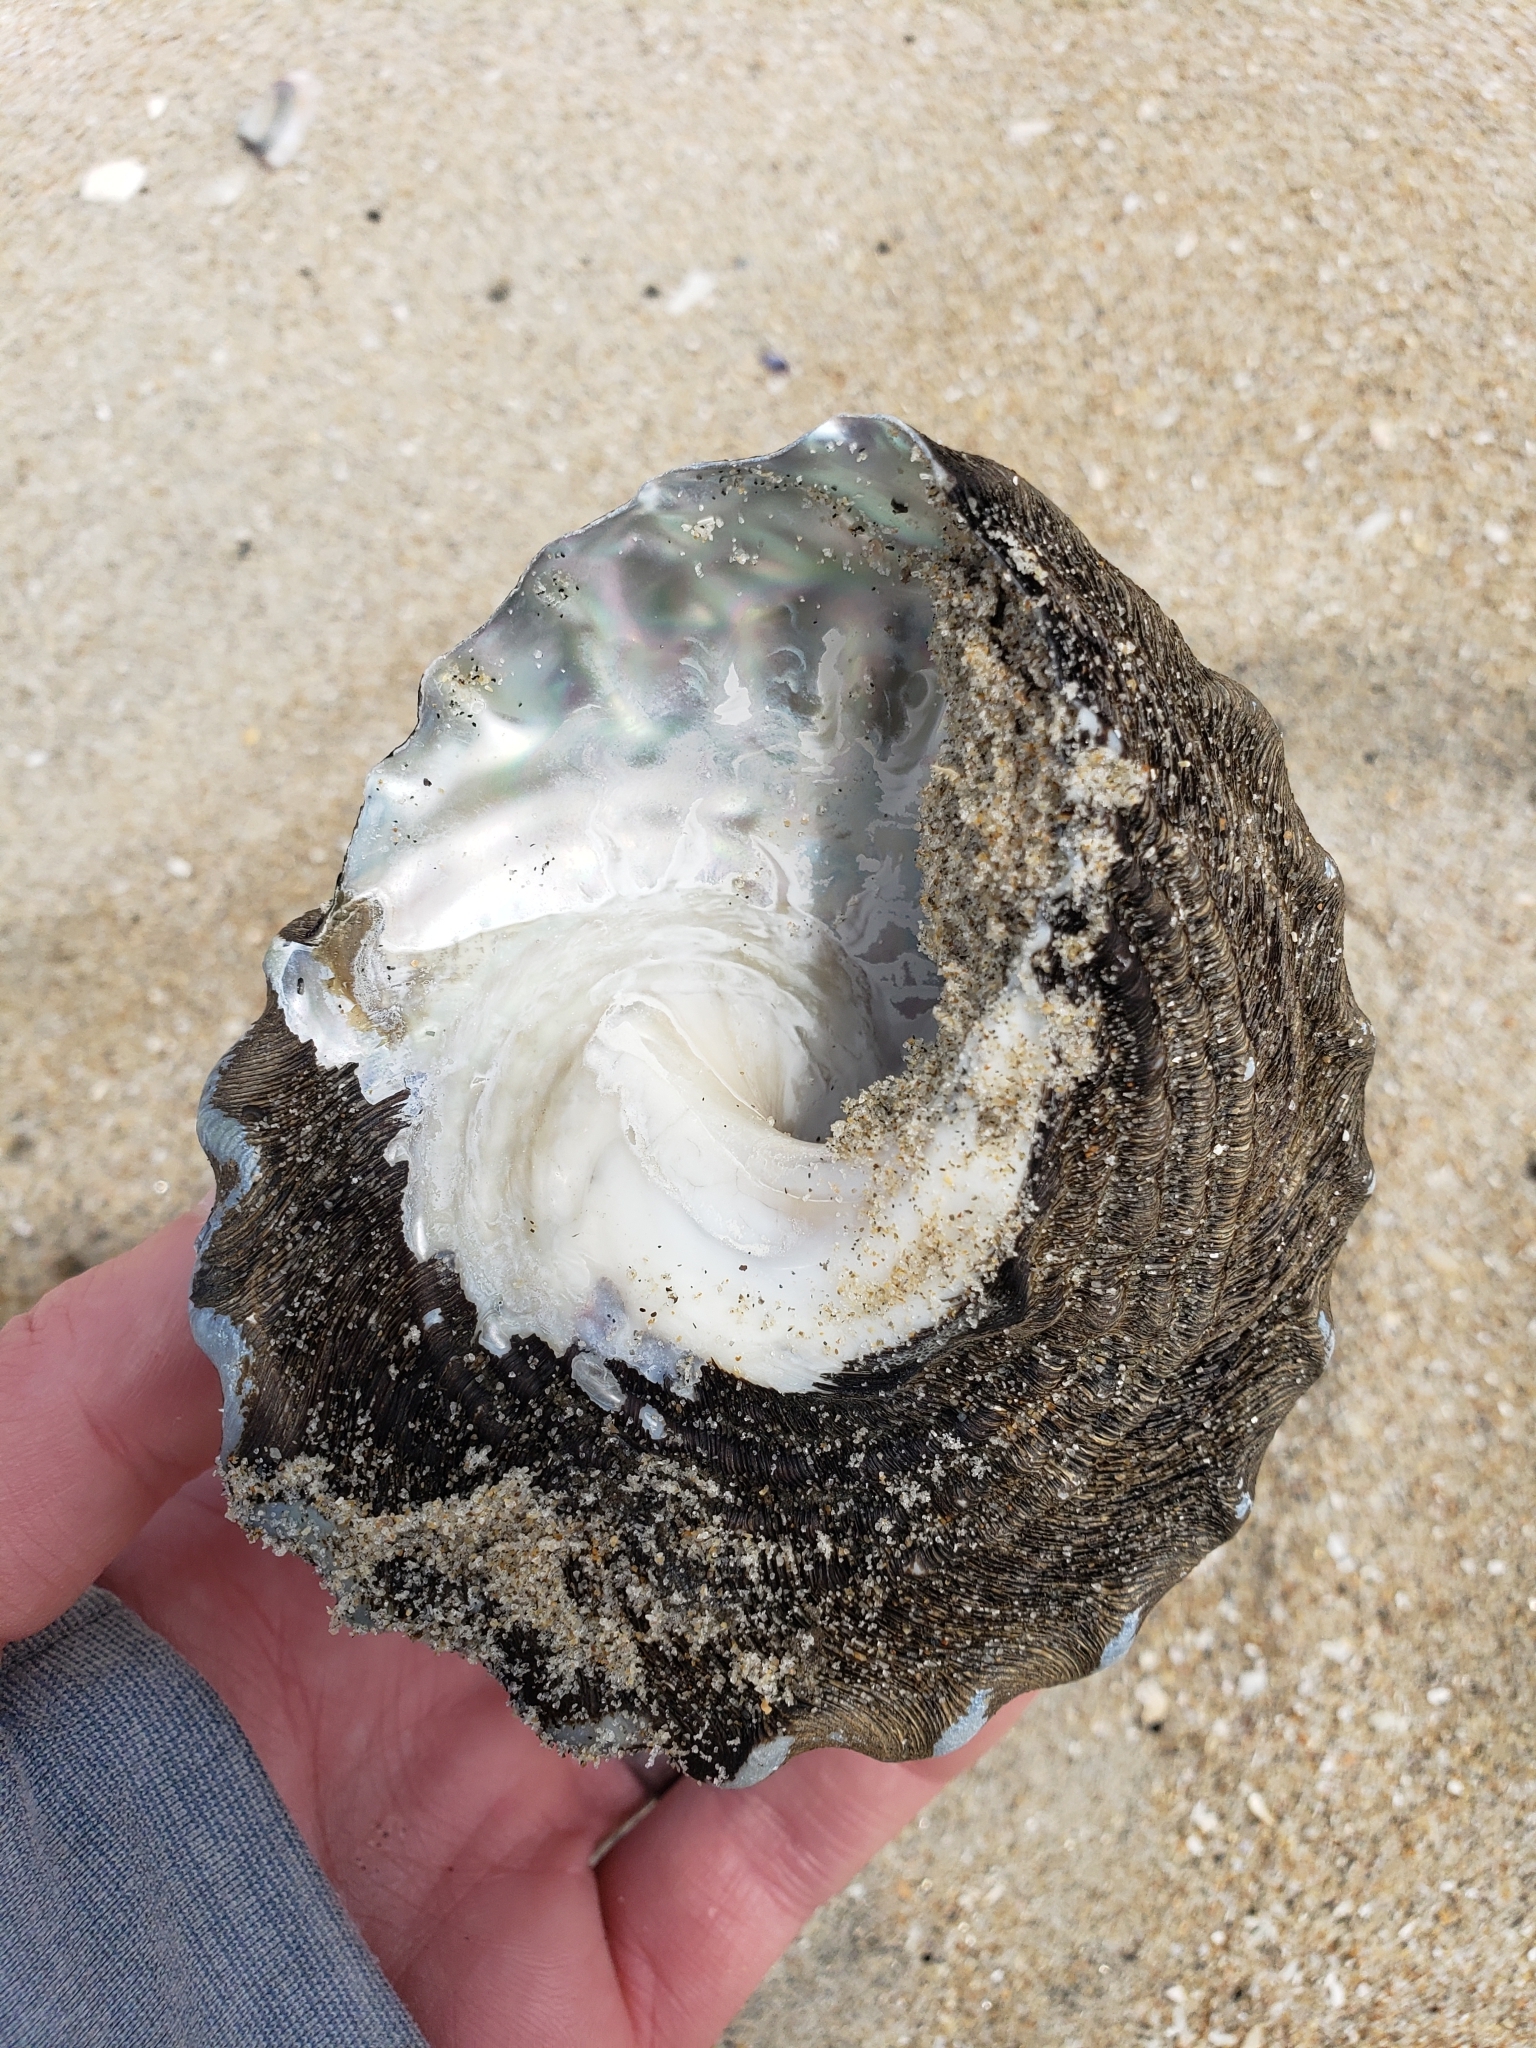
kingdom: Animalia
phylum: Mollusca
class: Gastropoda
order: Trochida
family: Turbinidae
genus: Megastraea
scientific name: Megastraea undosa
